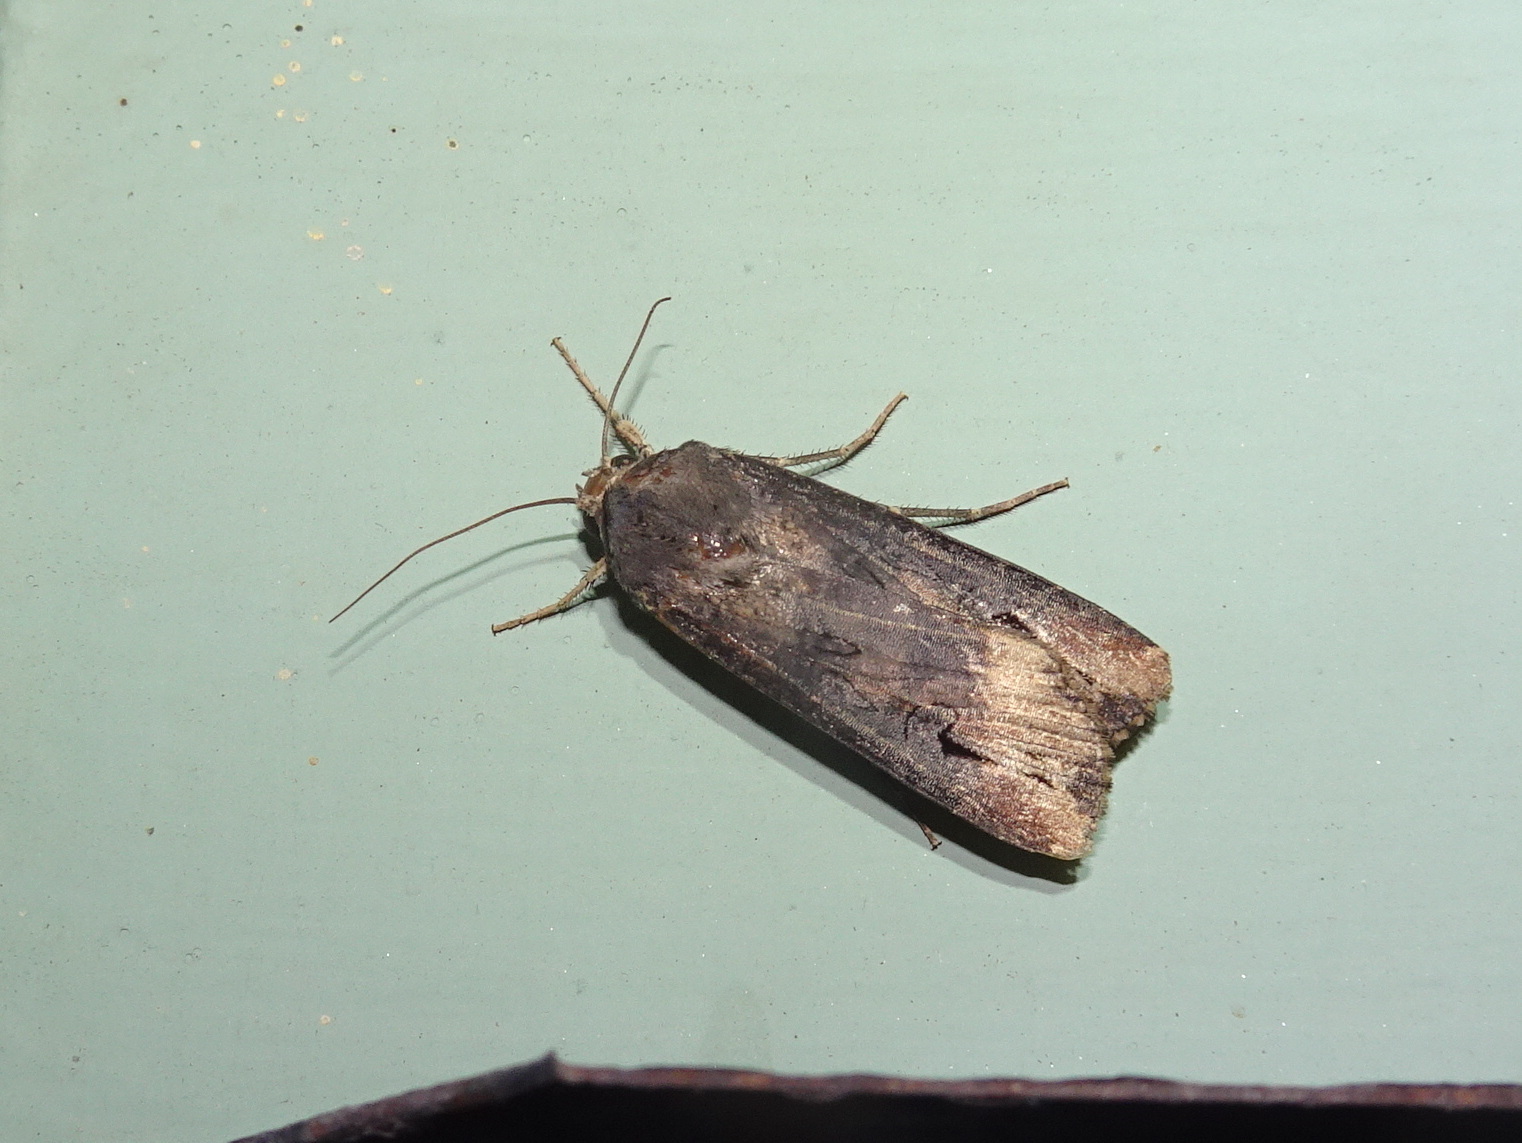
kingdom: Animalia
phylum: Arthropoda
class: Insecta
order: Lepidoptera
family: Noctuidae
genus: Agrotis
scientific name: Agrotis ipsilon
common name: Dark sword-grass
